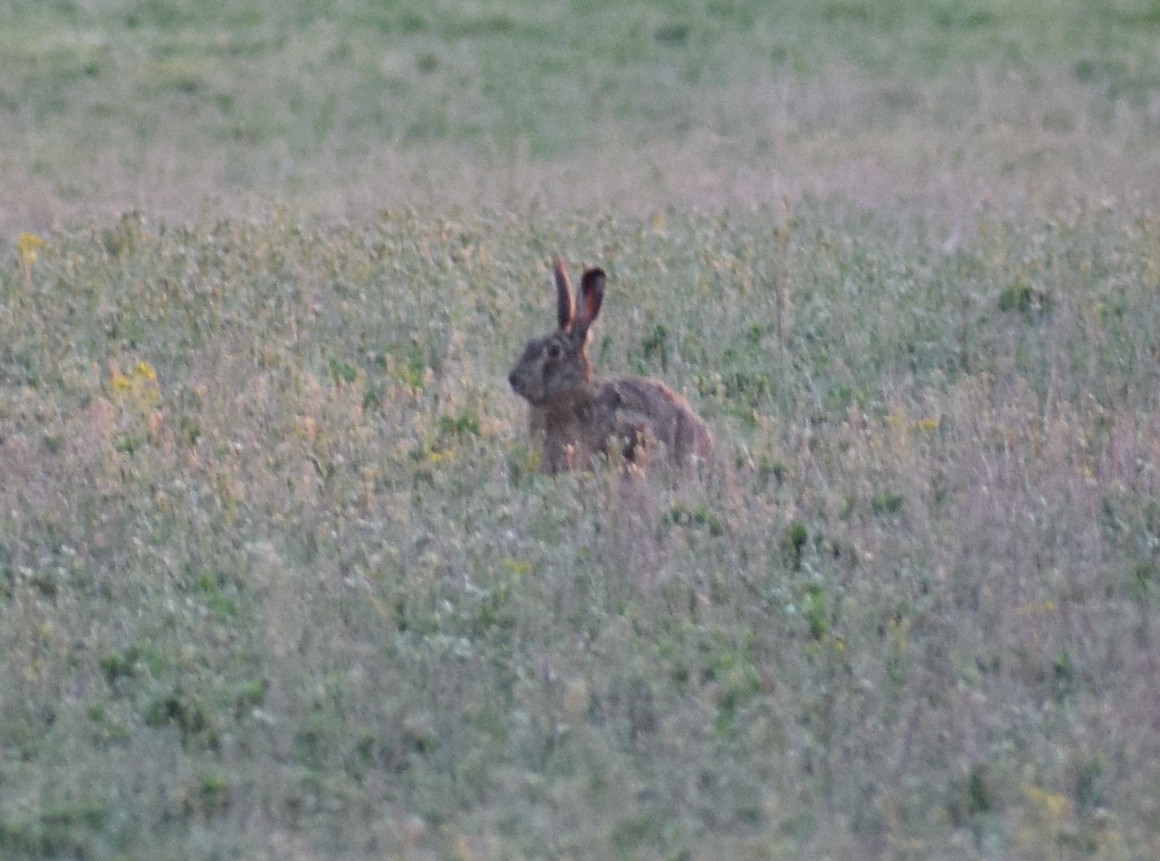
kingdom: Animalia
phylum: Chordata
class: Mammalia
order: Lagomorpha
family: Leporidae
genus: Lepus
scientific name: Lepus europaeus
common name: European hare
